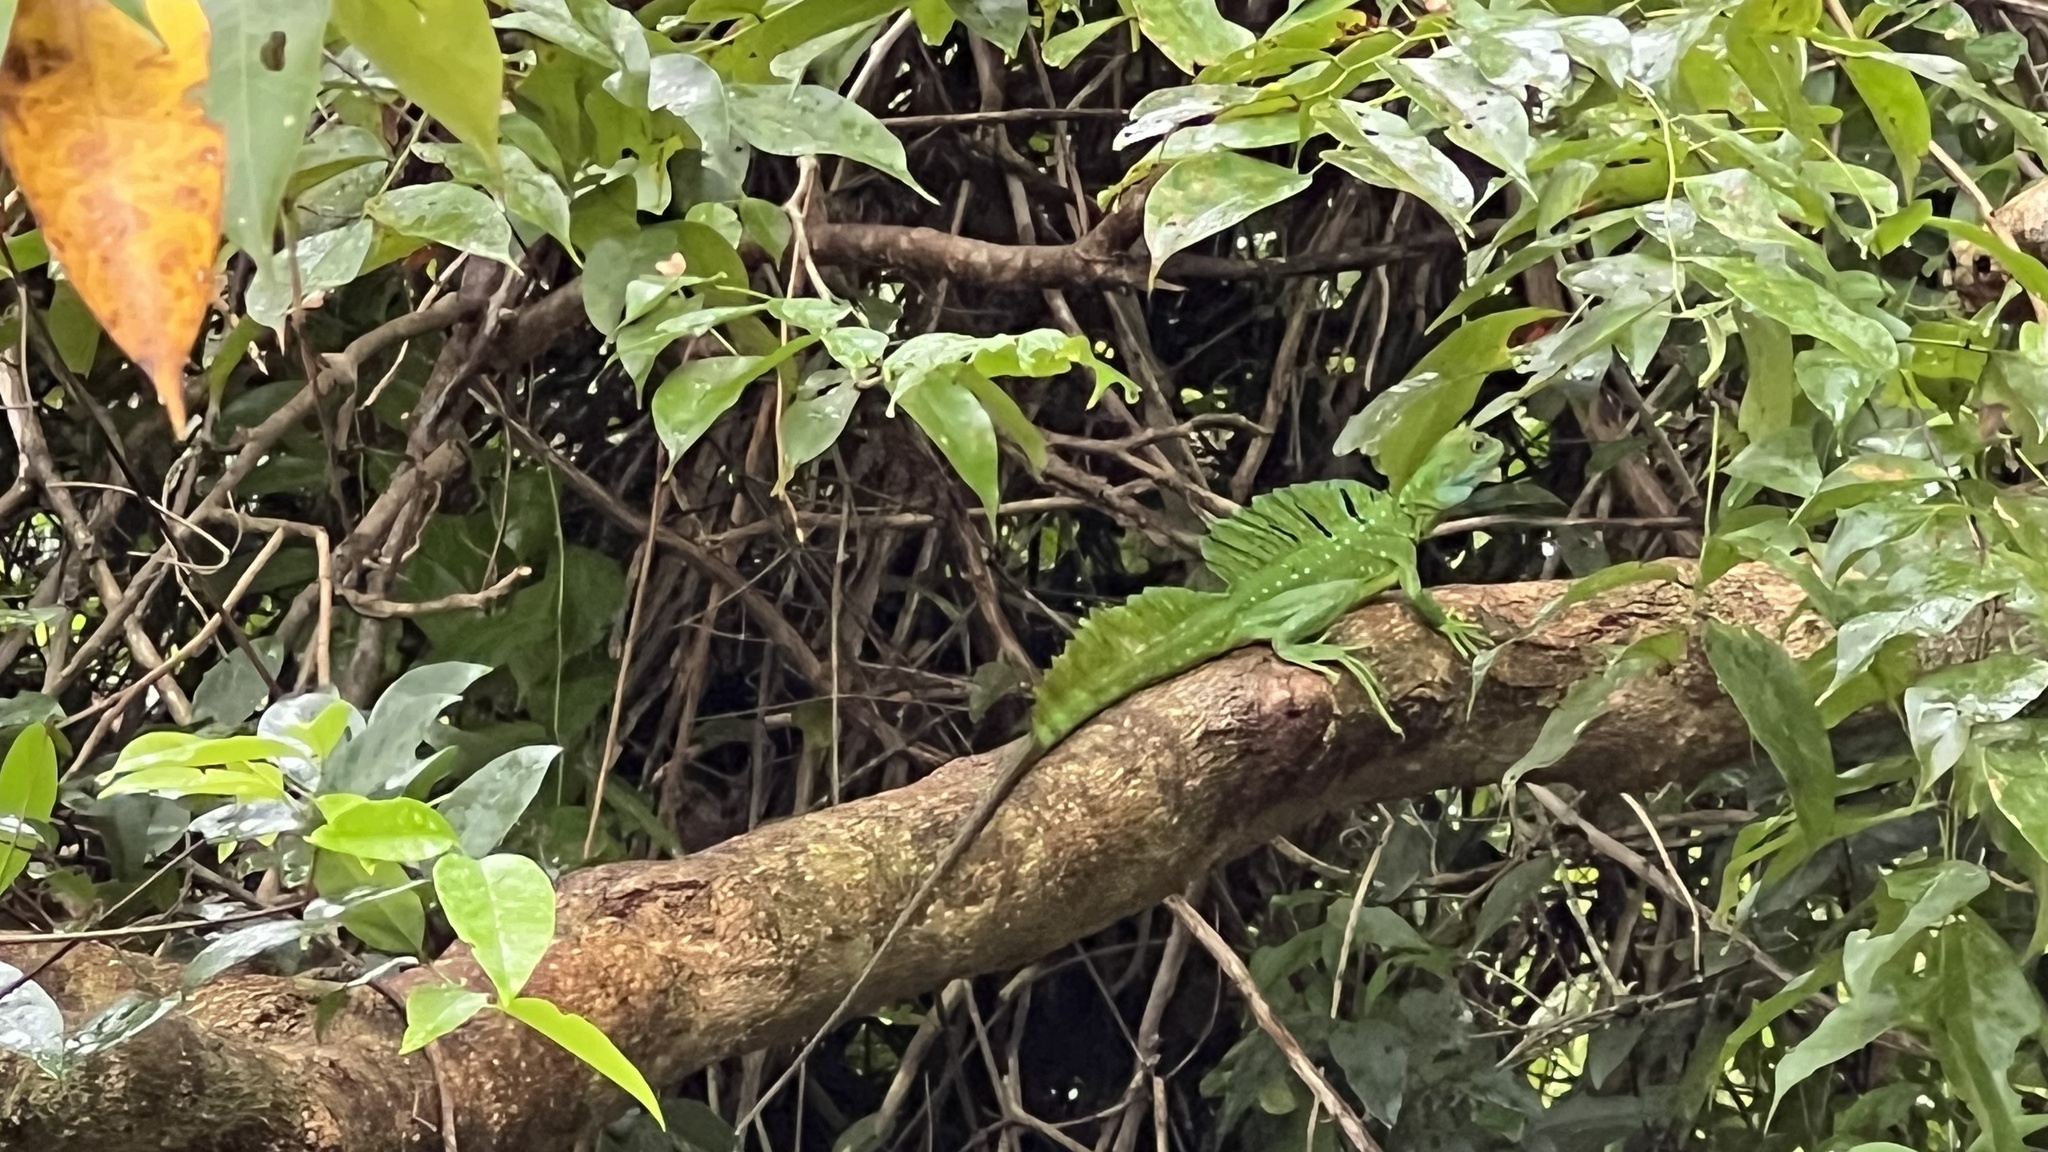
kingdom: Animalia
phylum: Chordata
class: Squamata
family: Corytophanidae
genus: Basiliscus
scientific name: Basiliscus plumifrons
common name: Green basilisk
